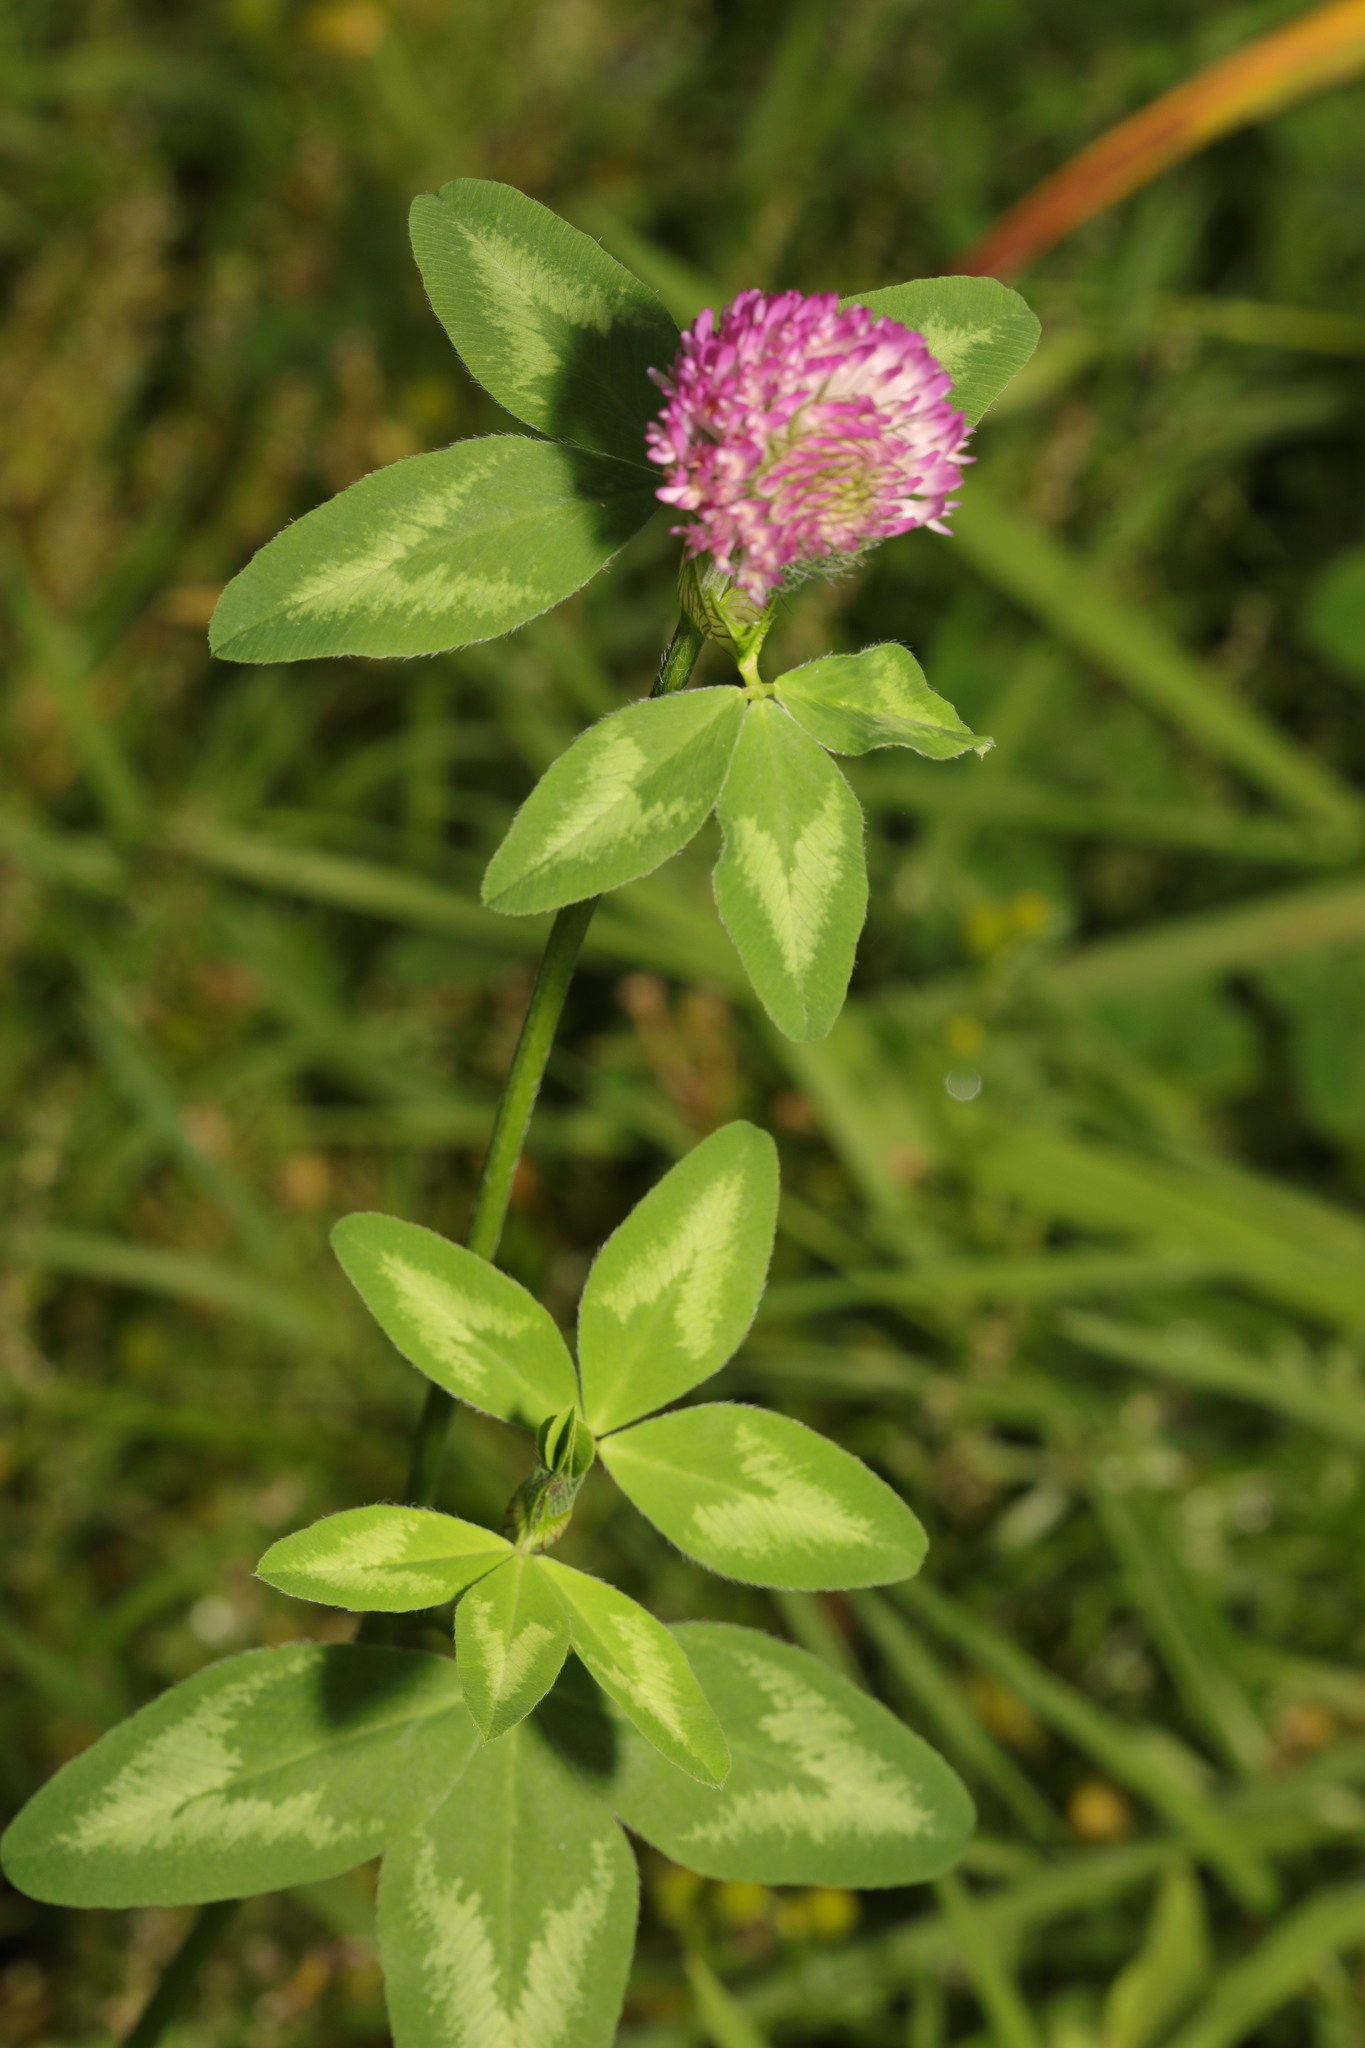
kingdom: Plantae
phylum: Tracheophyta
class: Magnoliopsida
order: Fabales
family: Fabaceae
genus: Trifolium
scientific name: Trifolium pratense
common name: Red clover
